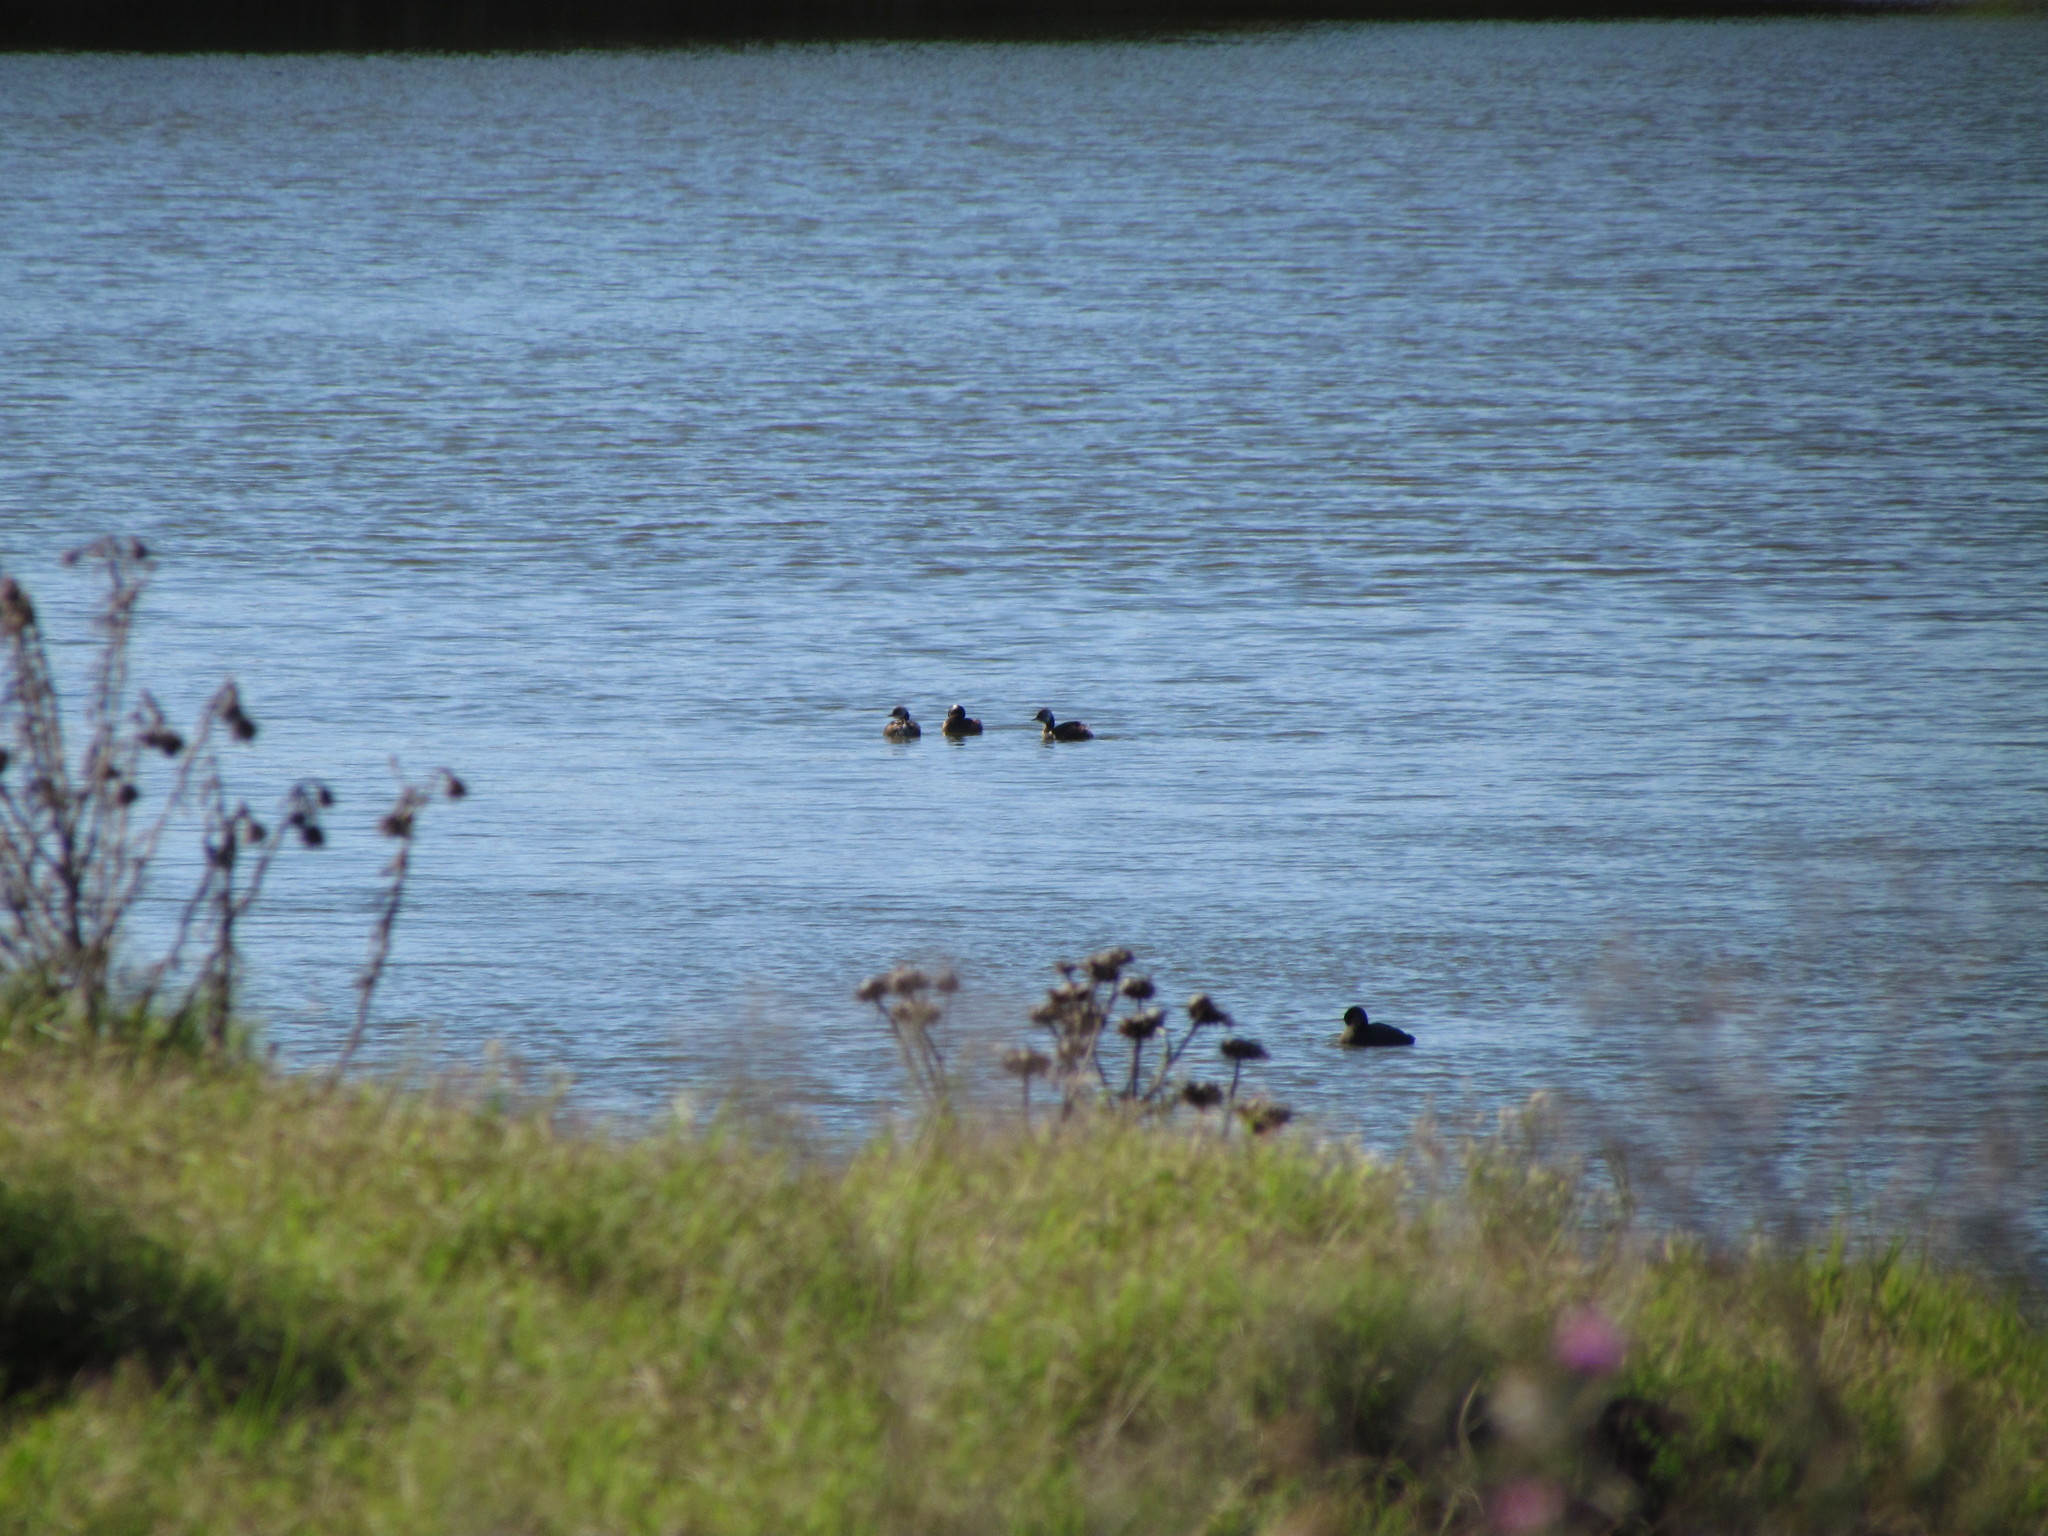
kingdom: Animalia
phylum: Chordata
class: Aves
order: Podicipediformes
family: Podicipedidae
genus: Rollandia
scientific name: Rollandia rolland
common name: White-tufted grebe
